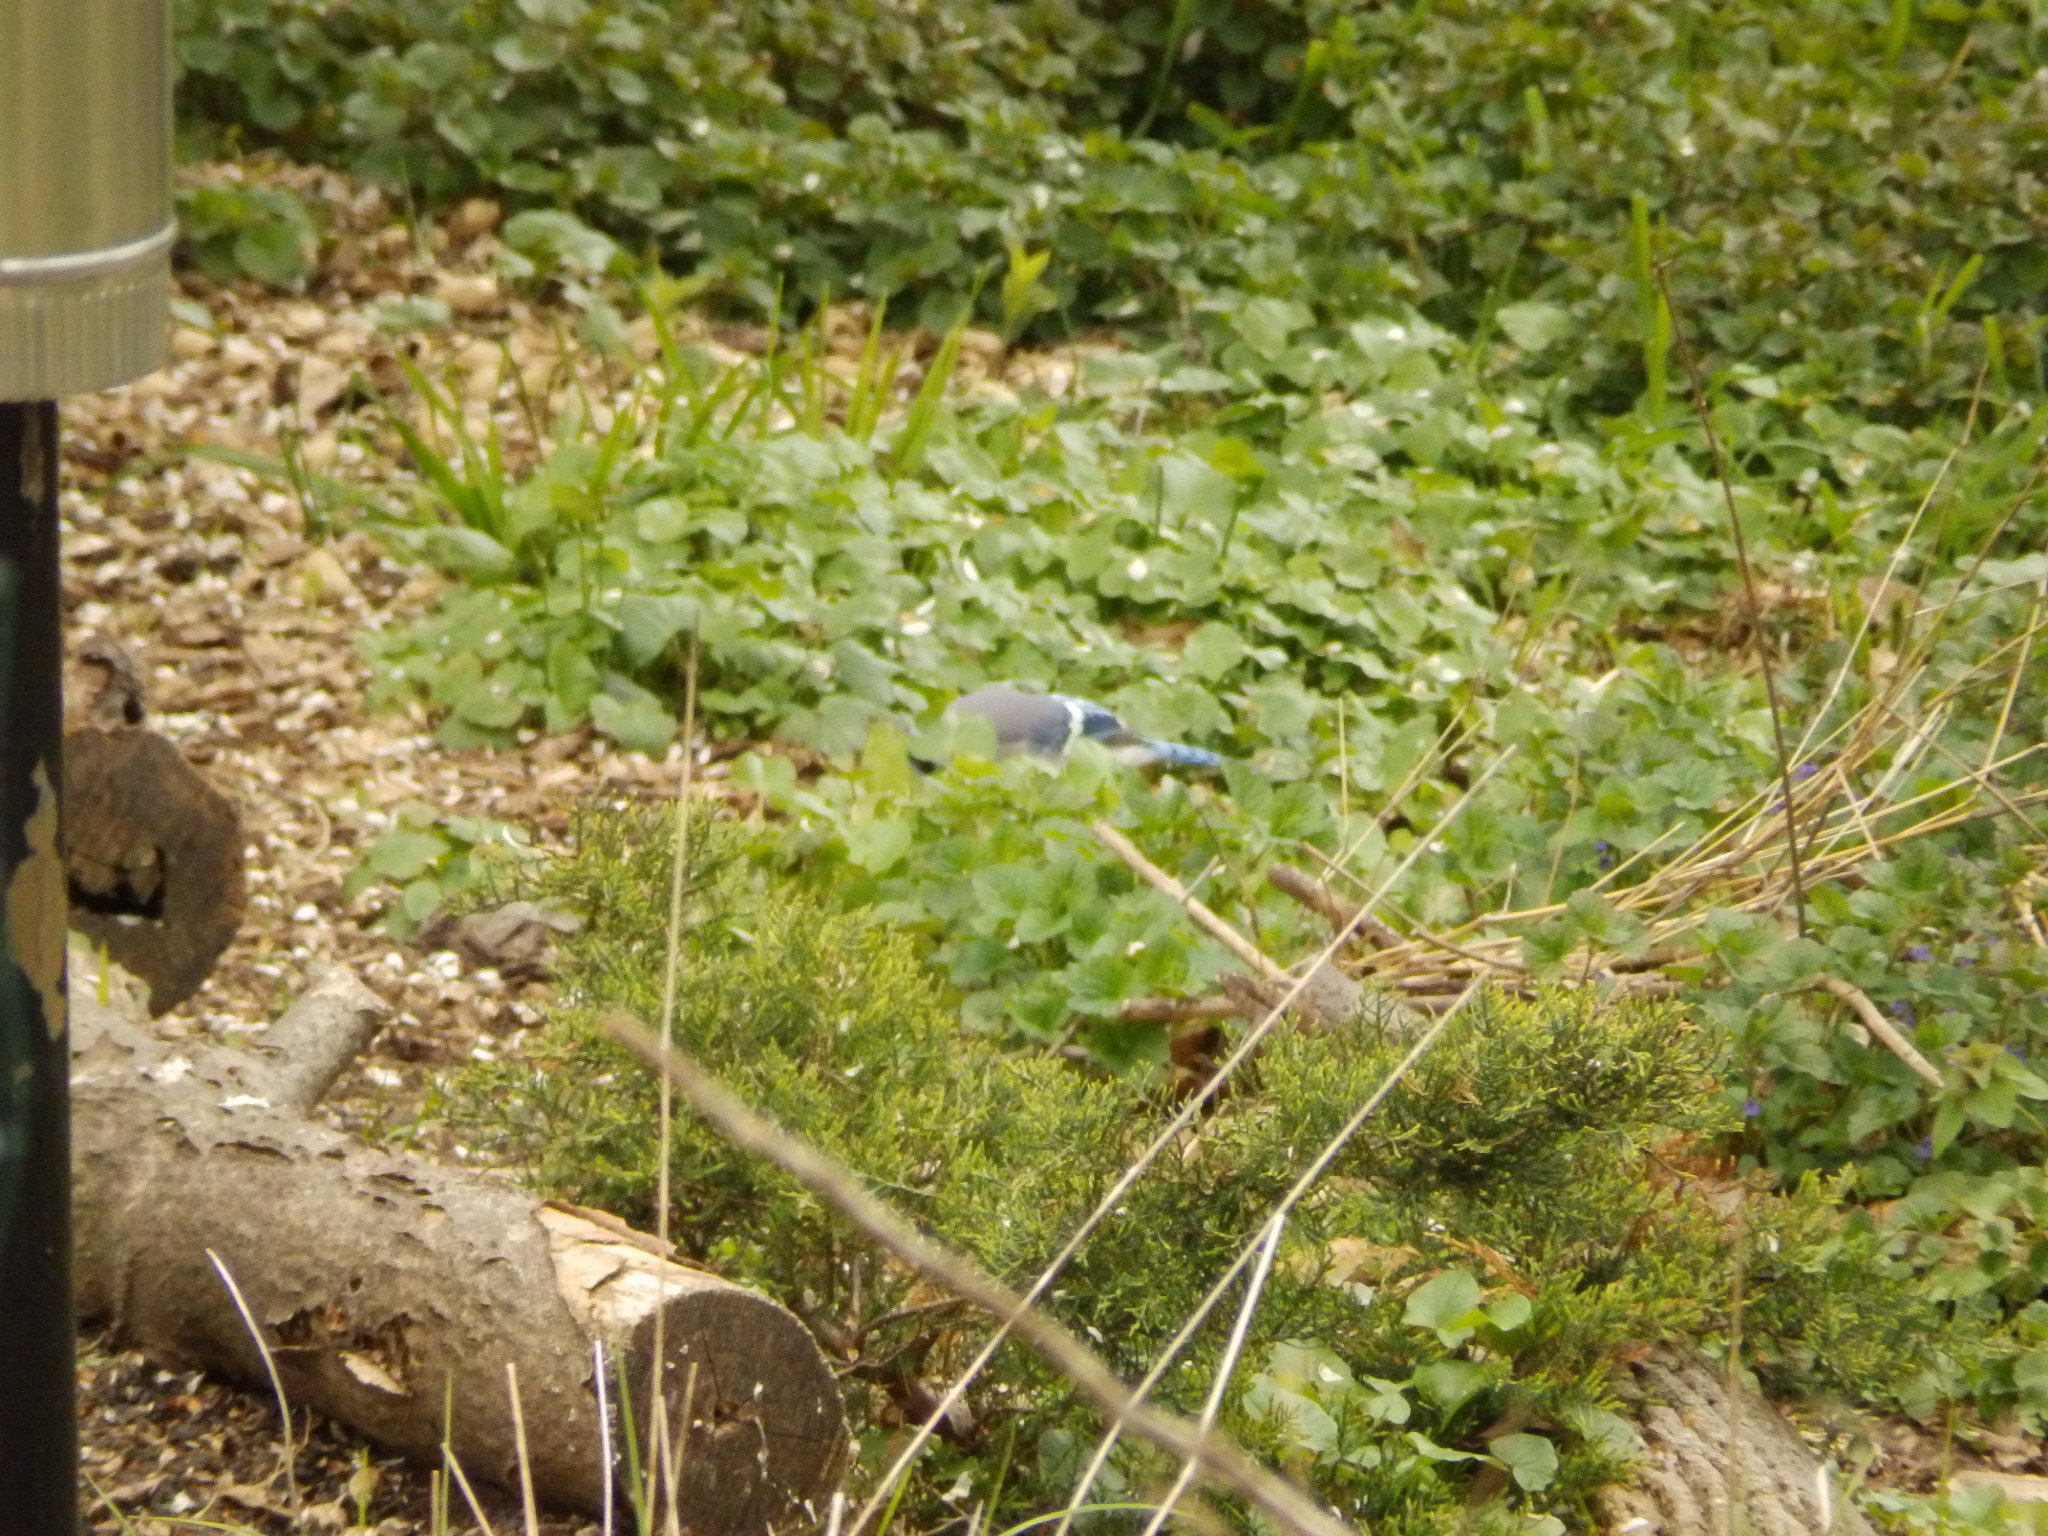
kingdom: Animalia
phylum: Chordata
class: Aves
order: Passeriformes
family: Corvidae
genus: Cyanocitta
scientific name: Cyanocitta cristata
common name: Blue jay
